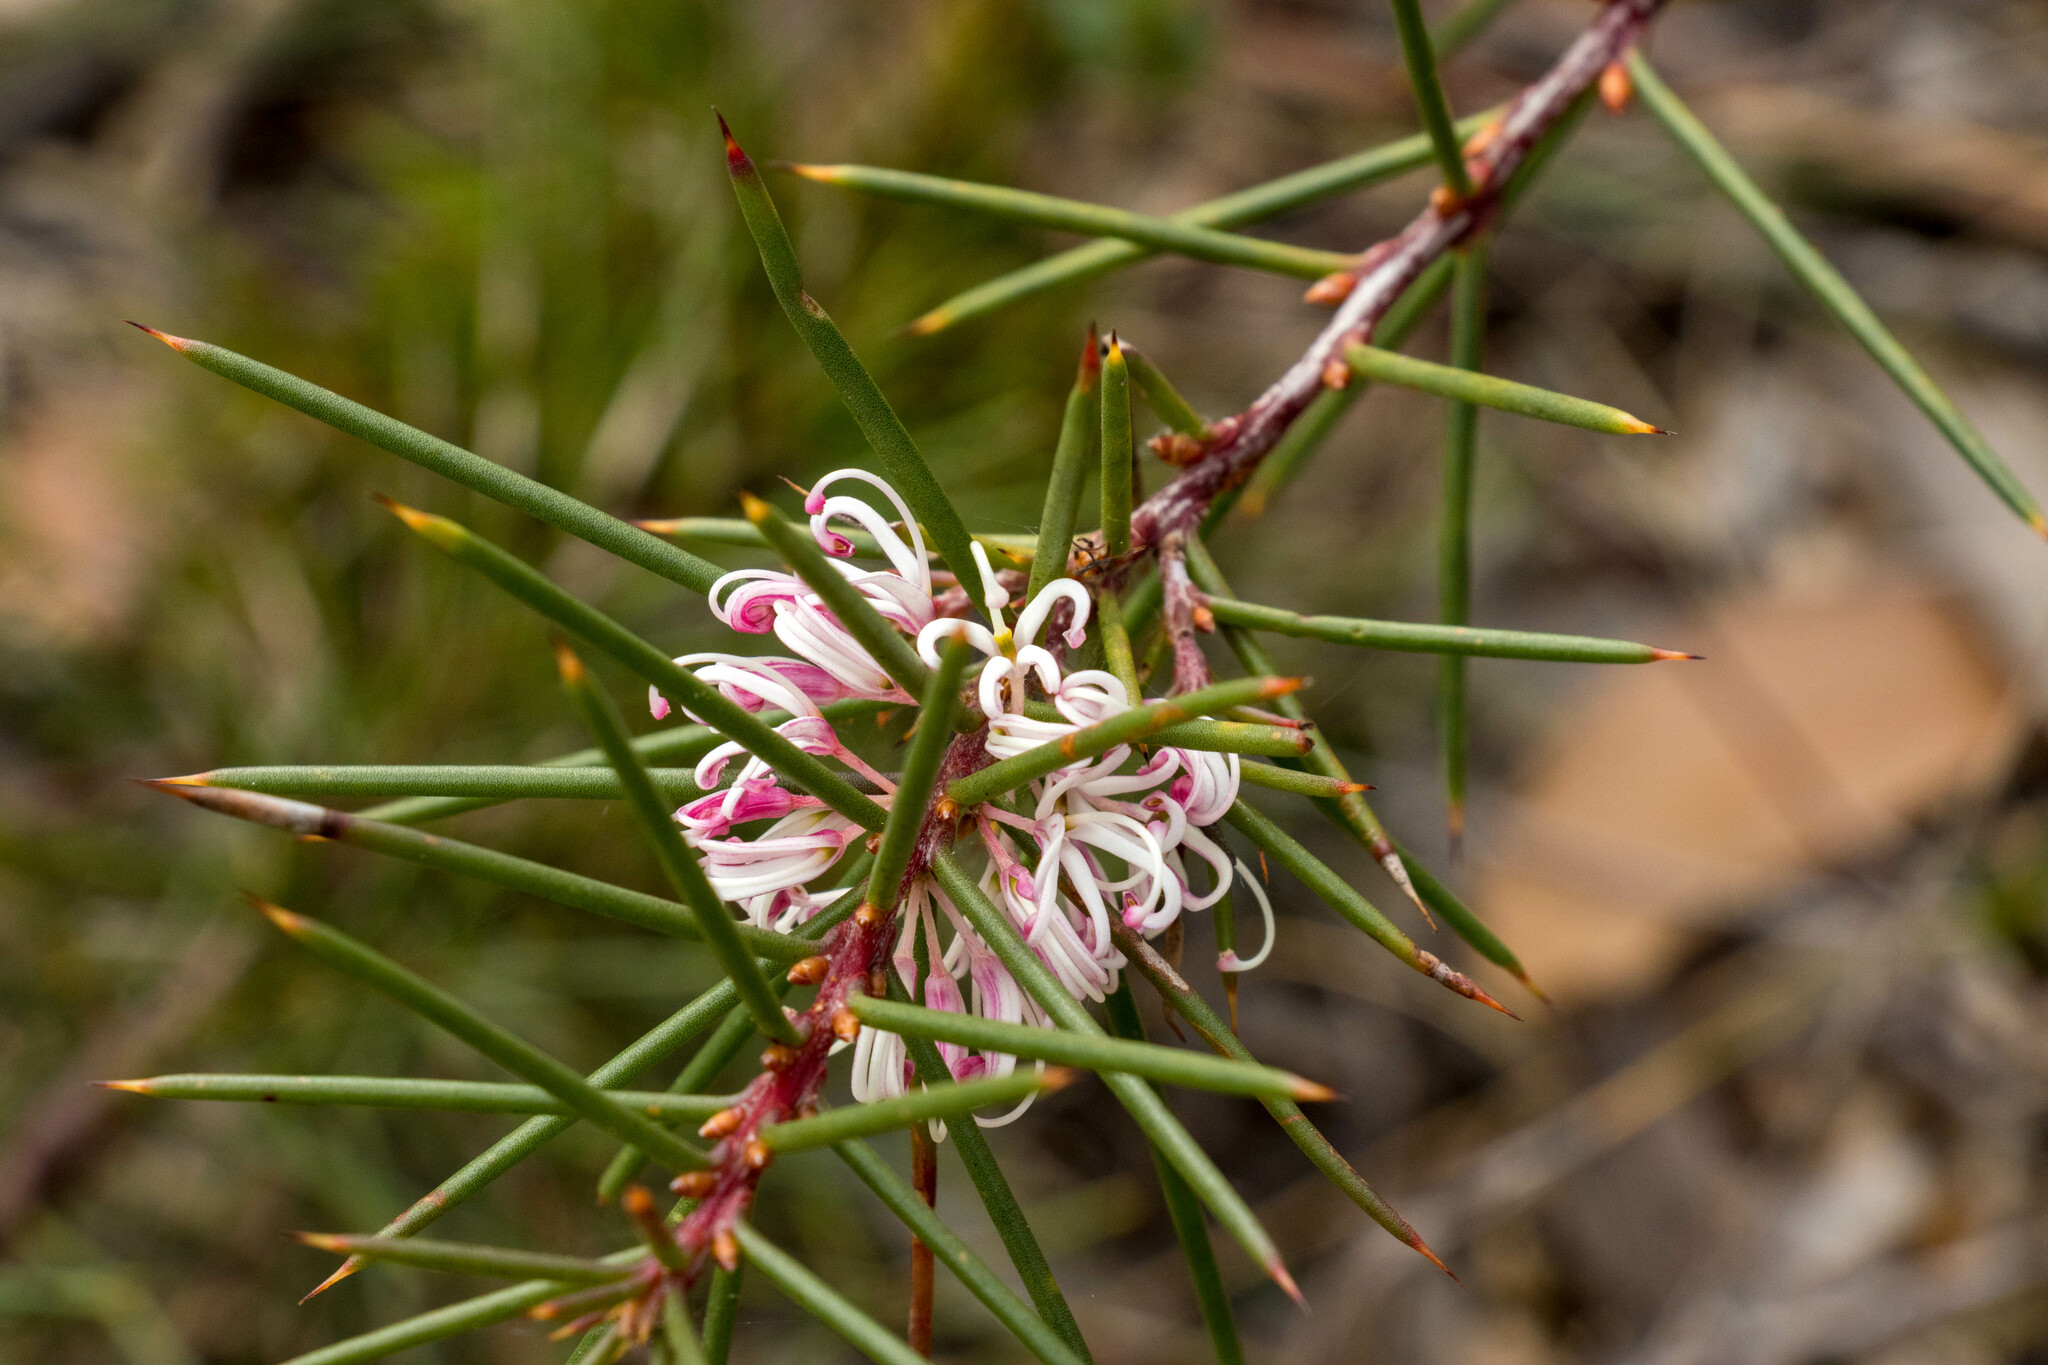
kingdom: Plantae
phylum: Tracheophyta
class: Magnoliopsida
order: Proteales
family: Proteaceae
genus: Hakea
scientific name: Hakea decurrens
